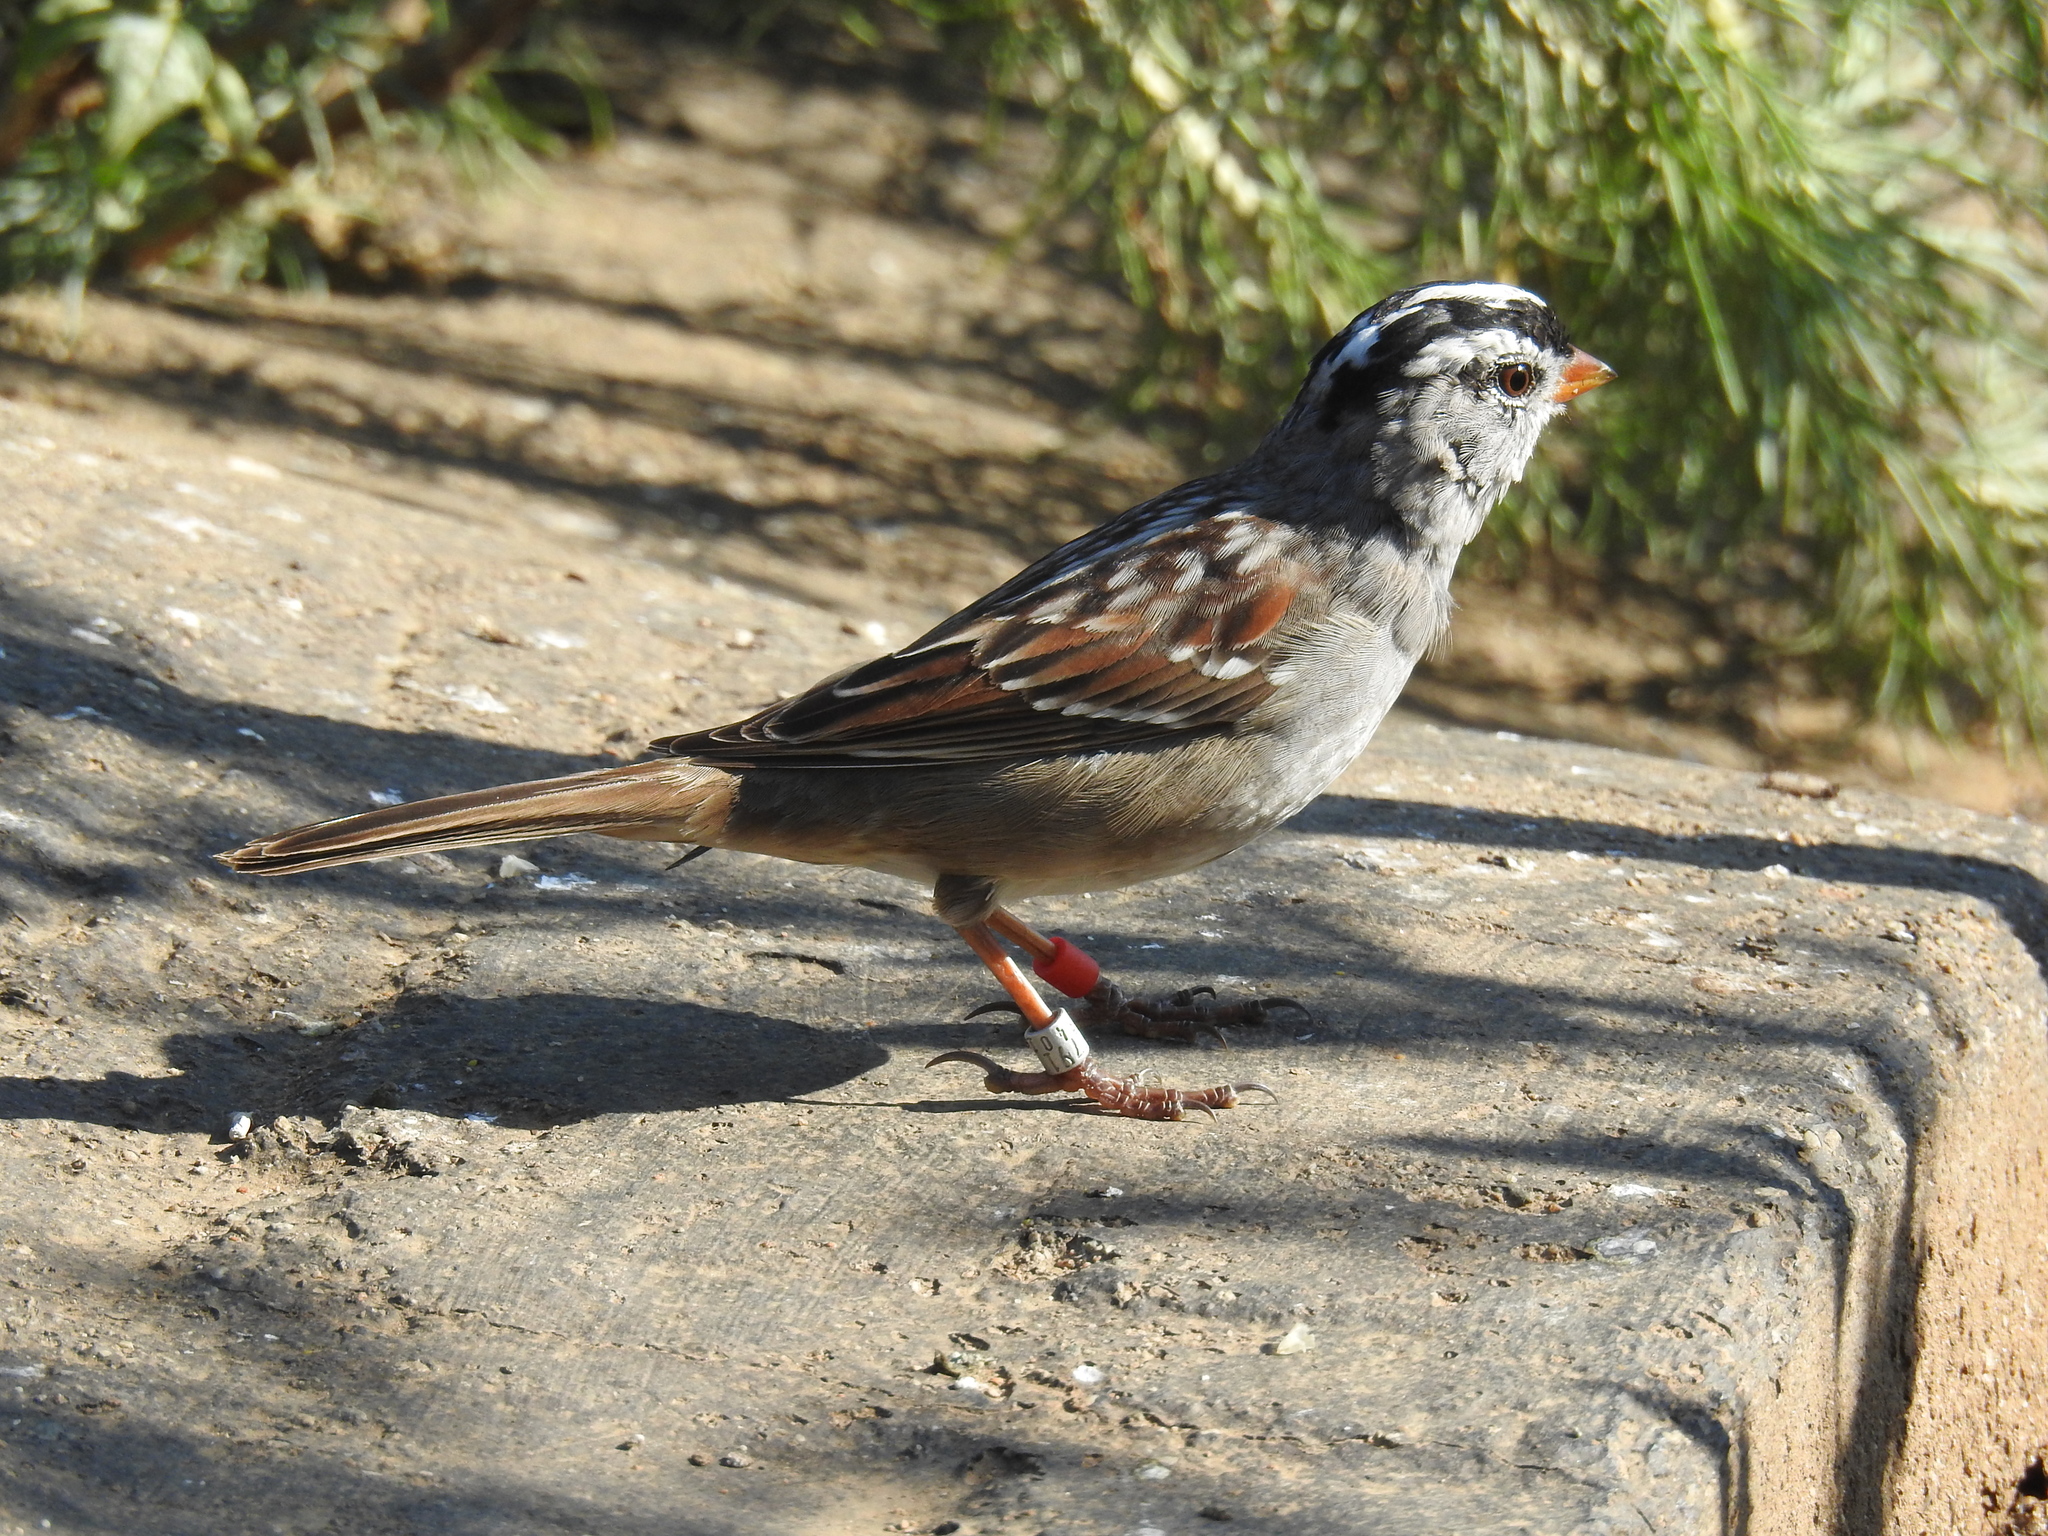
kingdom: Animalia
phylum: Chordata
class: Aves
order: Passeriformes
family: Passerellidae
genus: Zonotrichia
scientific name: Zonotrichia leucophrys
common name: White-crowned sparrow
